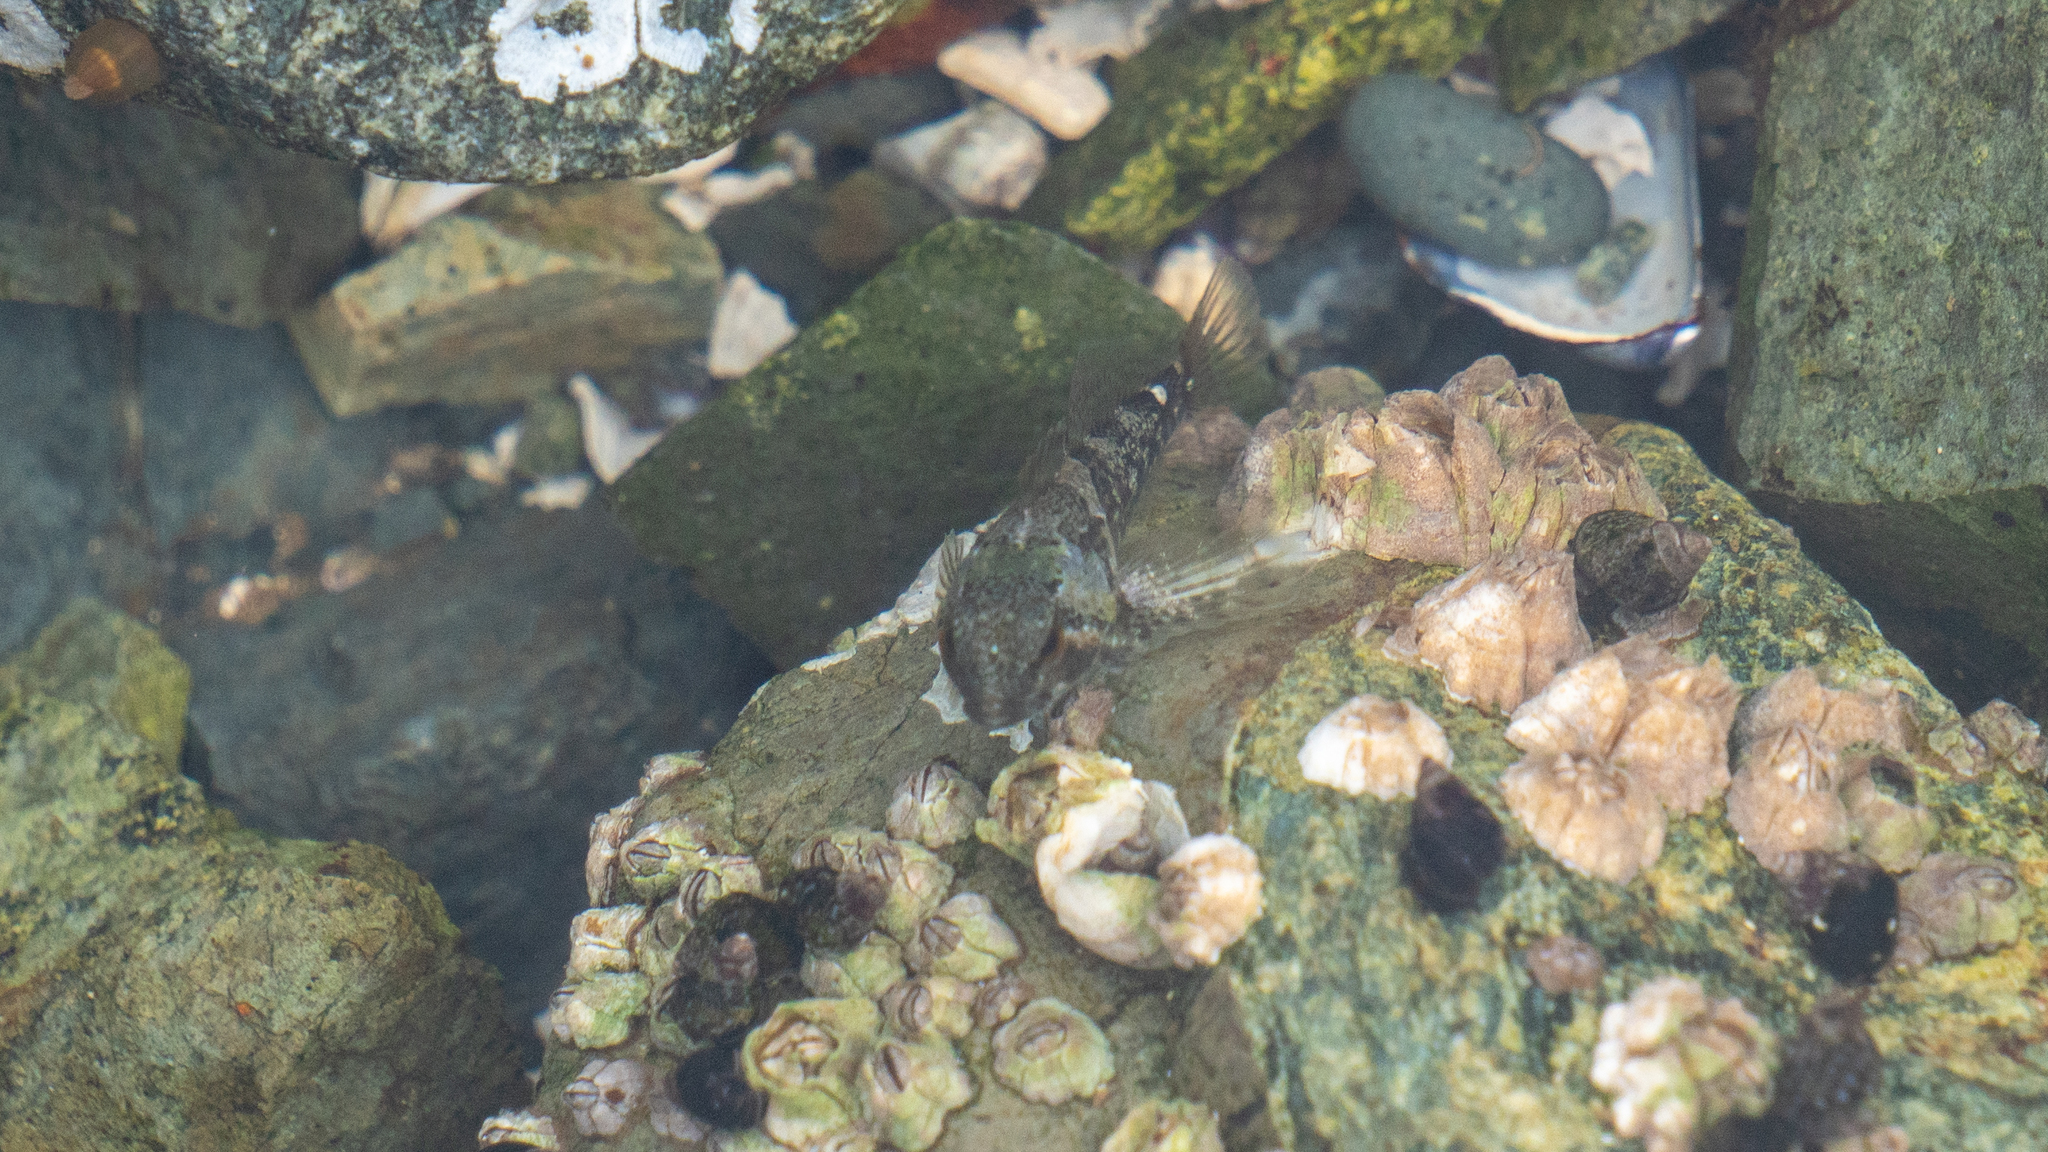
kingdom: Animalia
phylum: Chordata
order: Scorpaeniformes
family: Cottidae
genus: Oligocottus
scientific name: Oligocottus maculosus
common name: Tidepool sculpin
